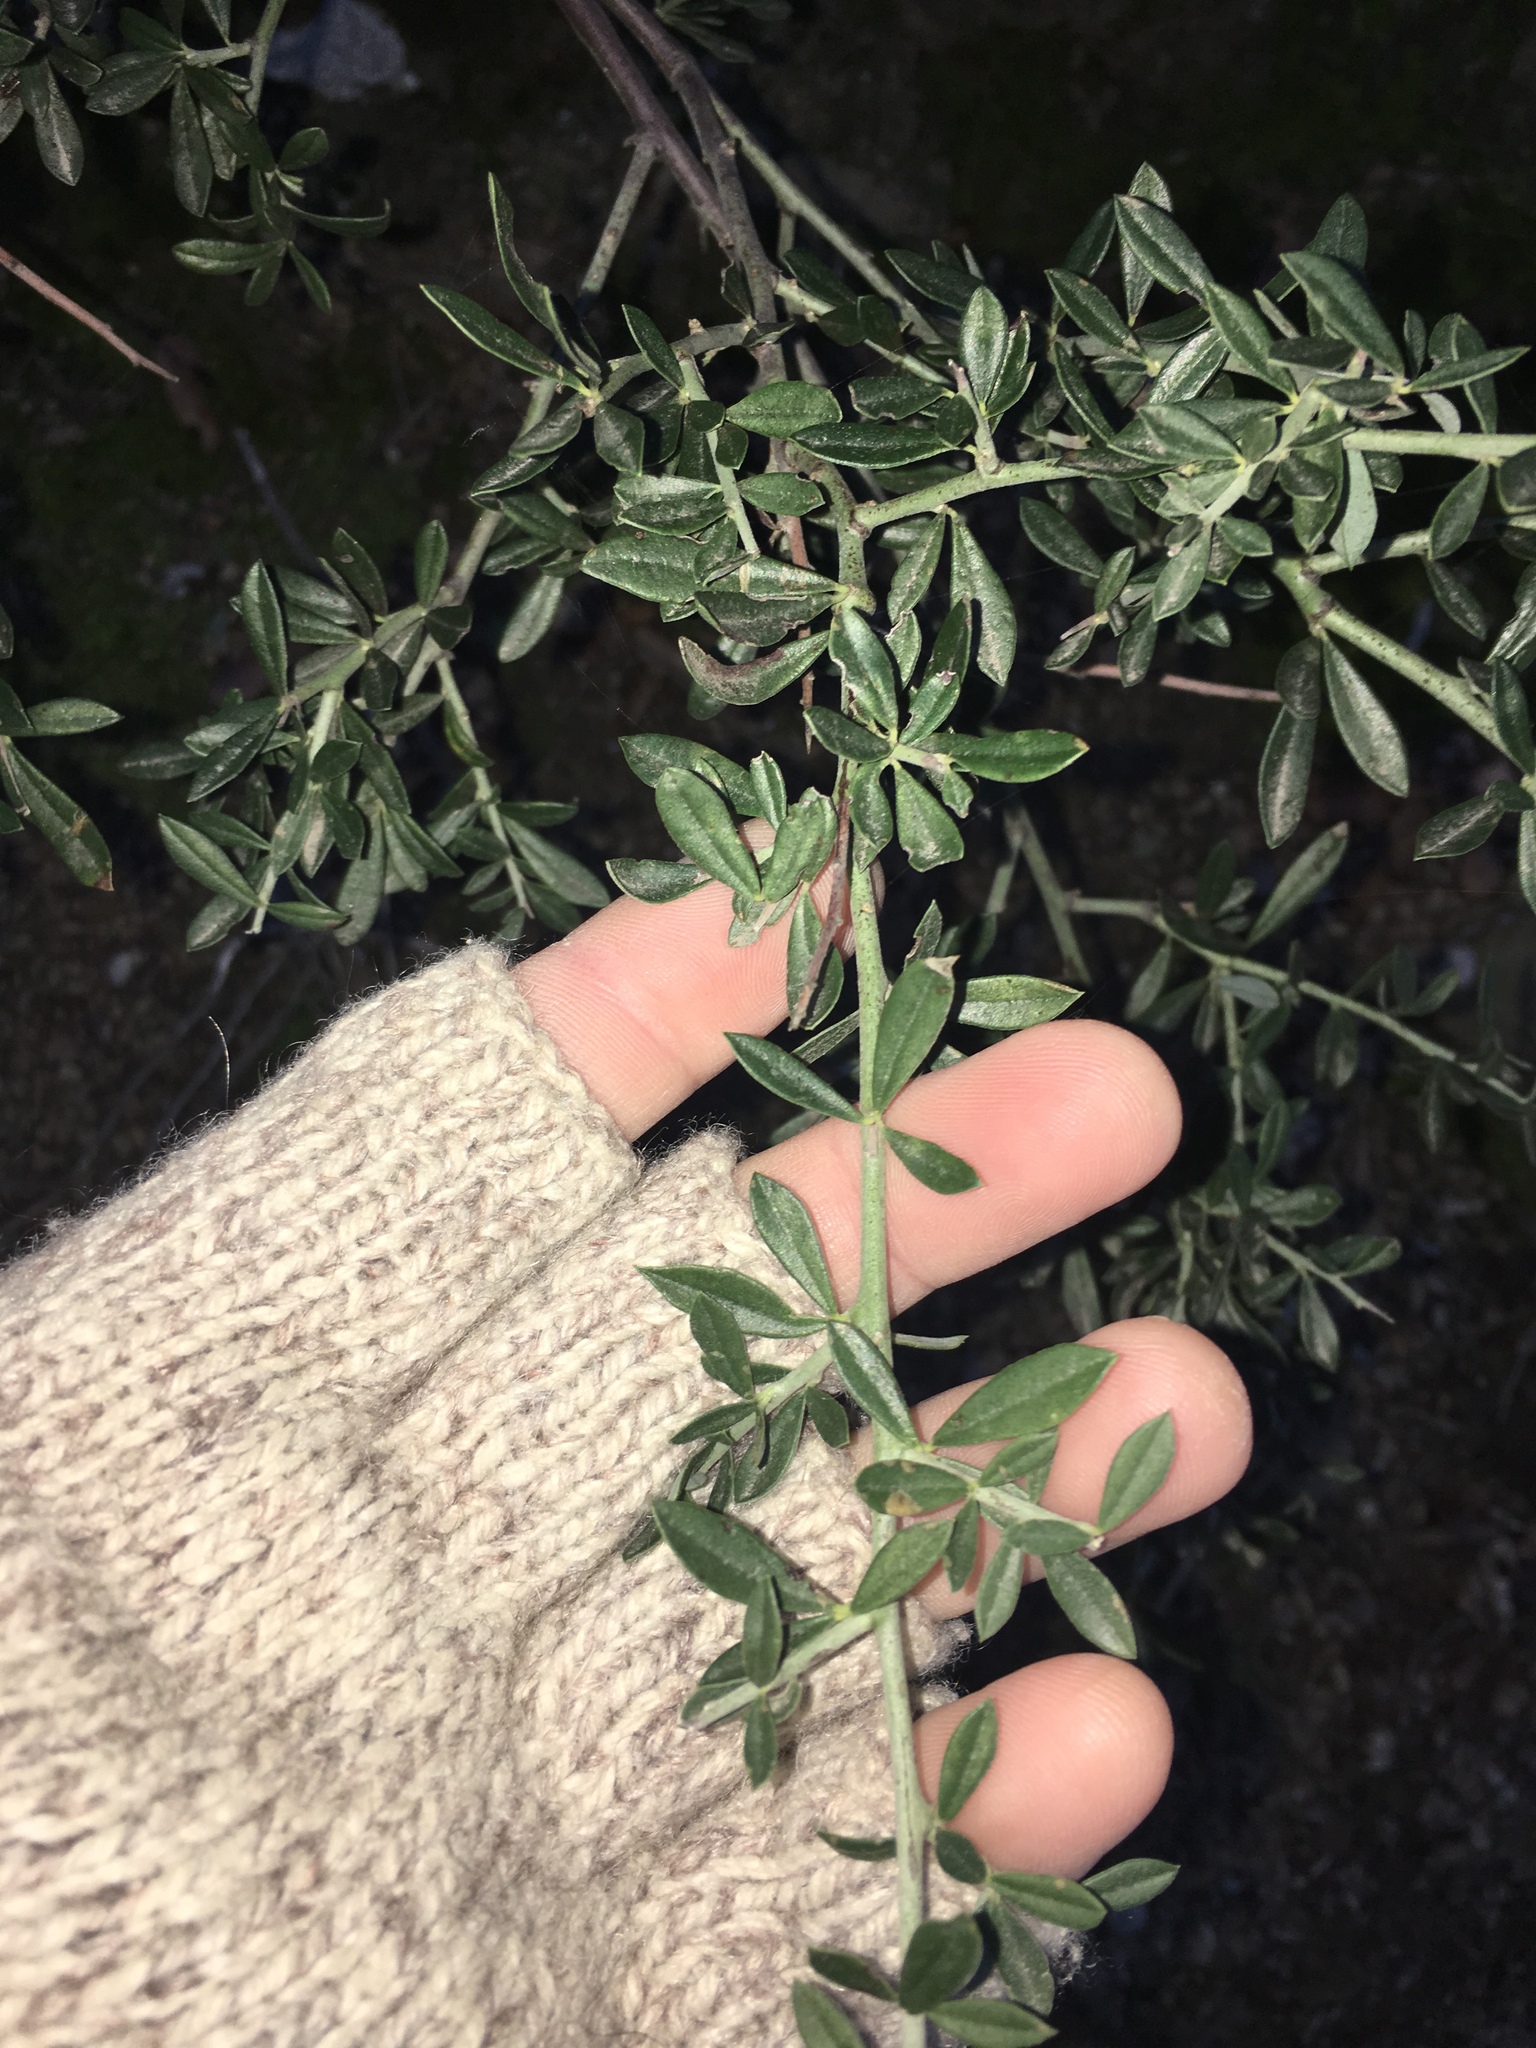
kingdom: Plantae
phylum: Tracheophyta
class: Magnoliopsida
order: Fabales
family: Fabaceae
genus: Pickeringia
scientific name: Pickeringia montana
